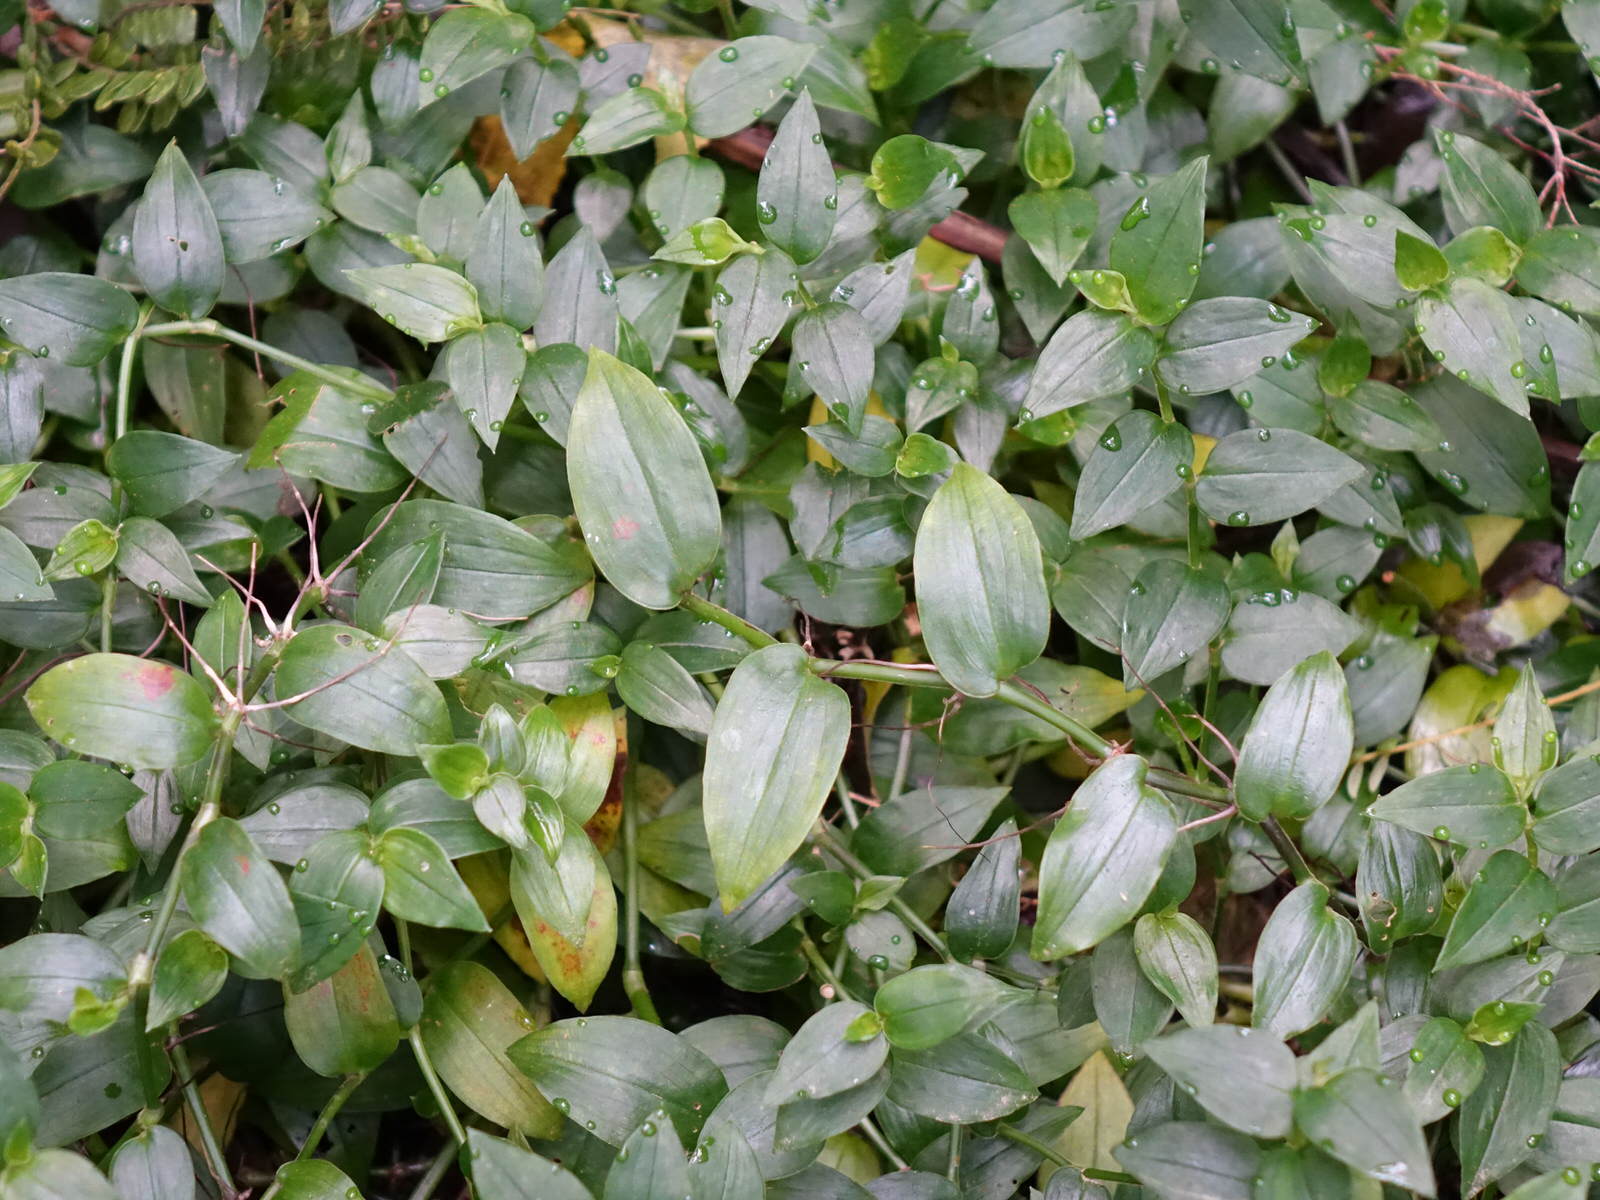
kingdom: Plantae
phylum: Tracheophyta
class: Liliopsida
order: Commelinales
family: Commelinaceae
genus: Tradescantia
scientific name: Tradescantia fluminensis
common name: Wandering-jew
